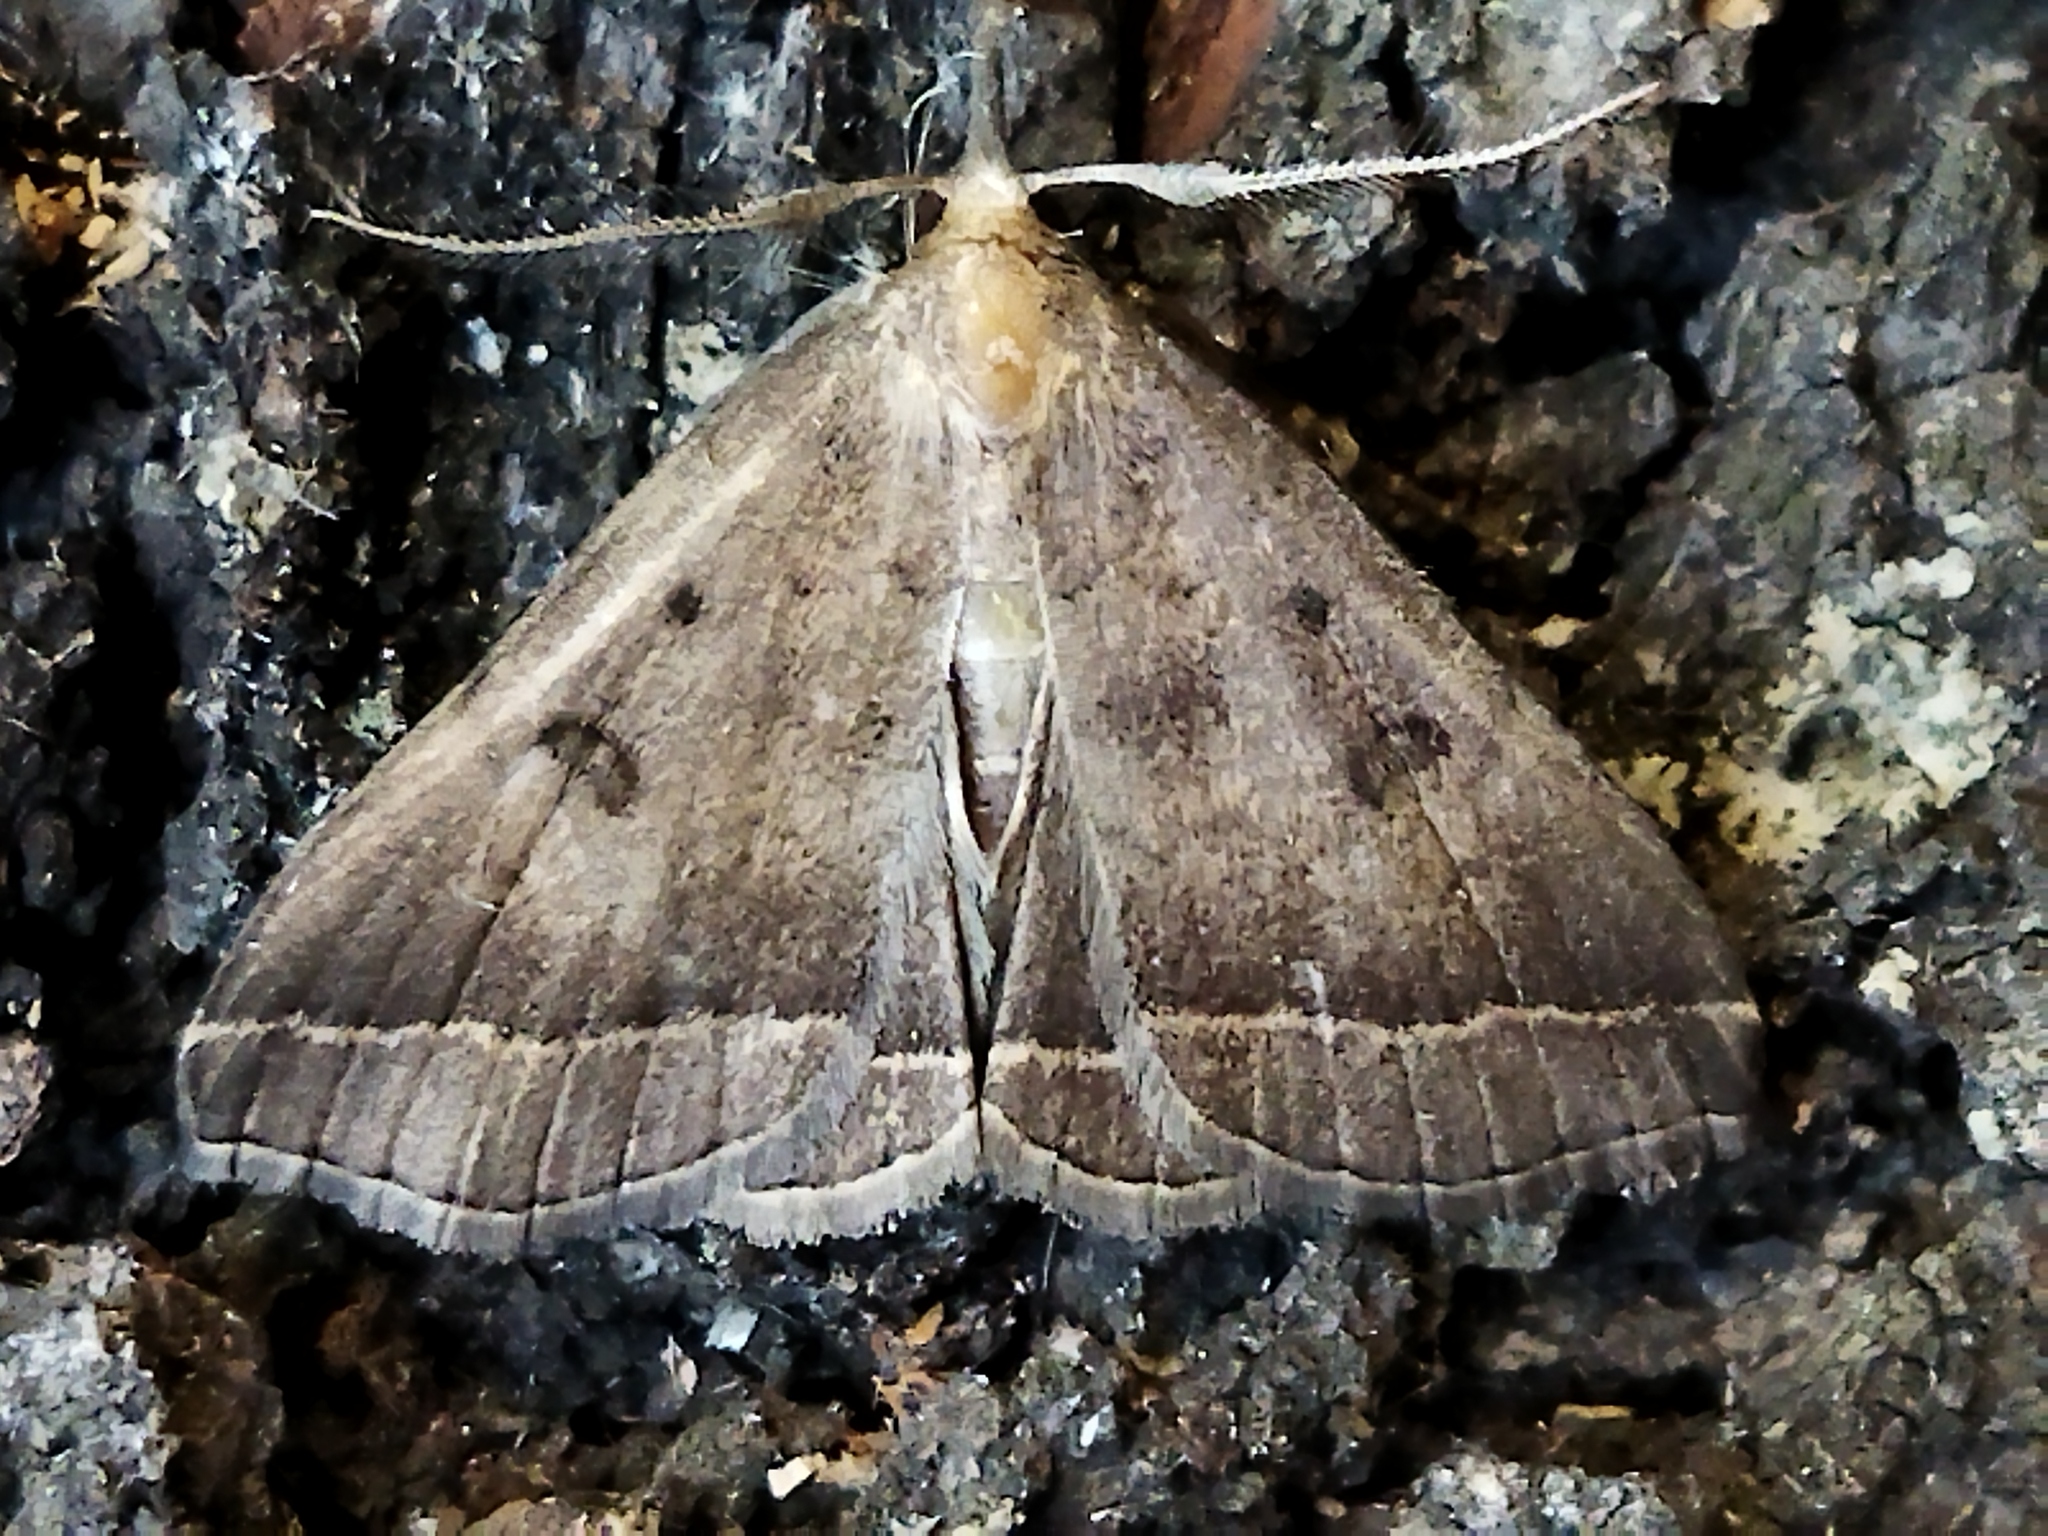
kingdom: Animalia
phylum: Arthropoda
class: Insecta
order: Lepidoptera
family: Erebidae
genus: Pechipogo
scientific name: Pechipogo plumigeralis
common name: Plumed fan-foot
